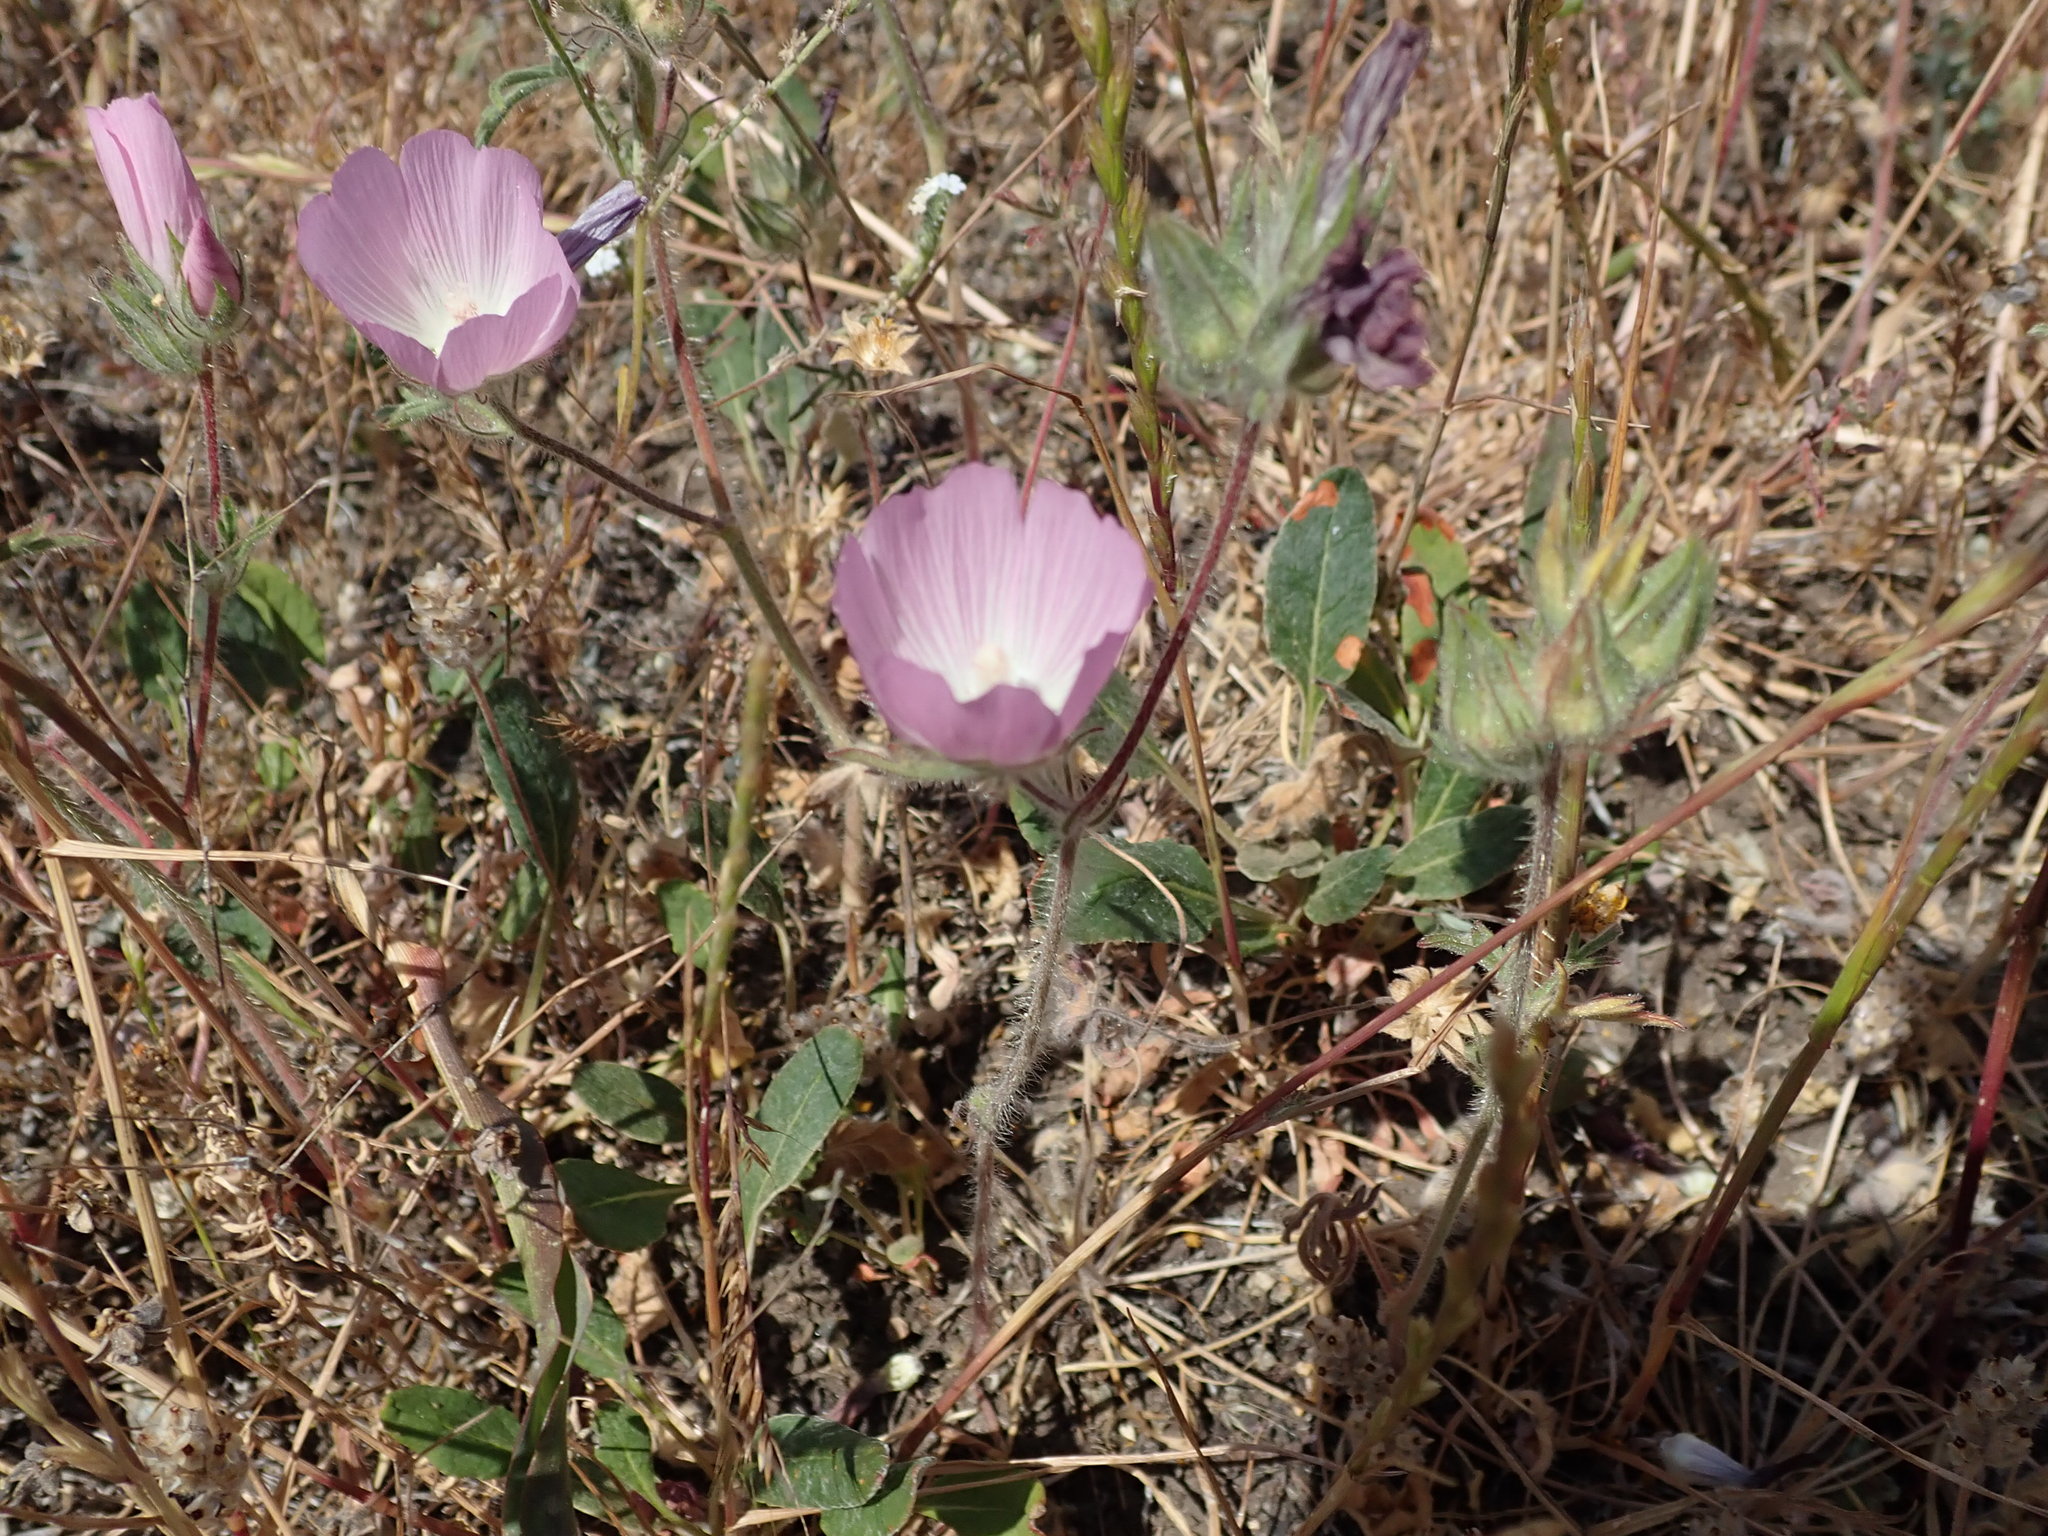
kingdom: Plantae
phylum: Tracheophyta
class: Magnoliopsida
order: Malvales
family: Malvaceae
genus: Sidalcea
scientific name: Sidalcea diploscypha
